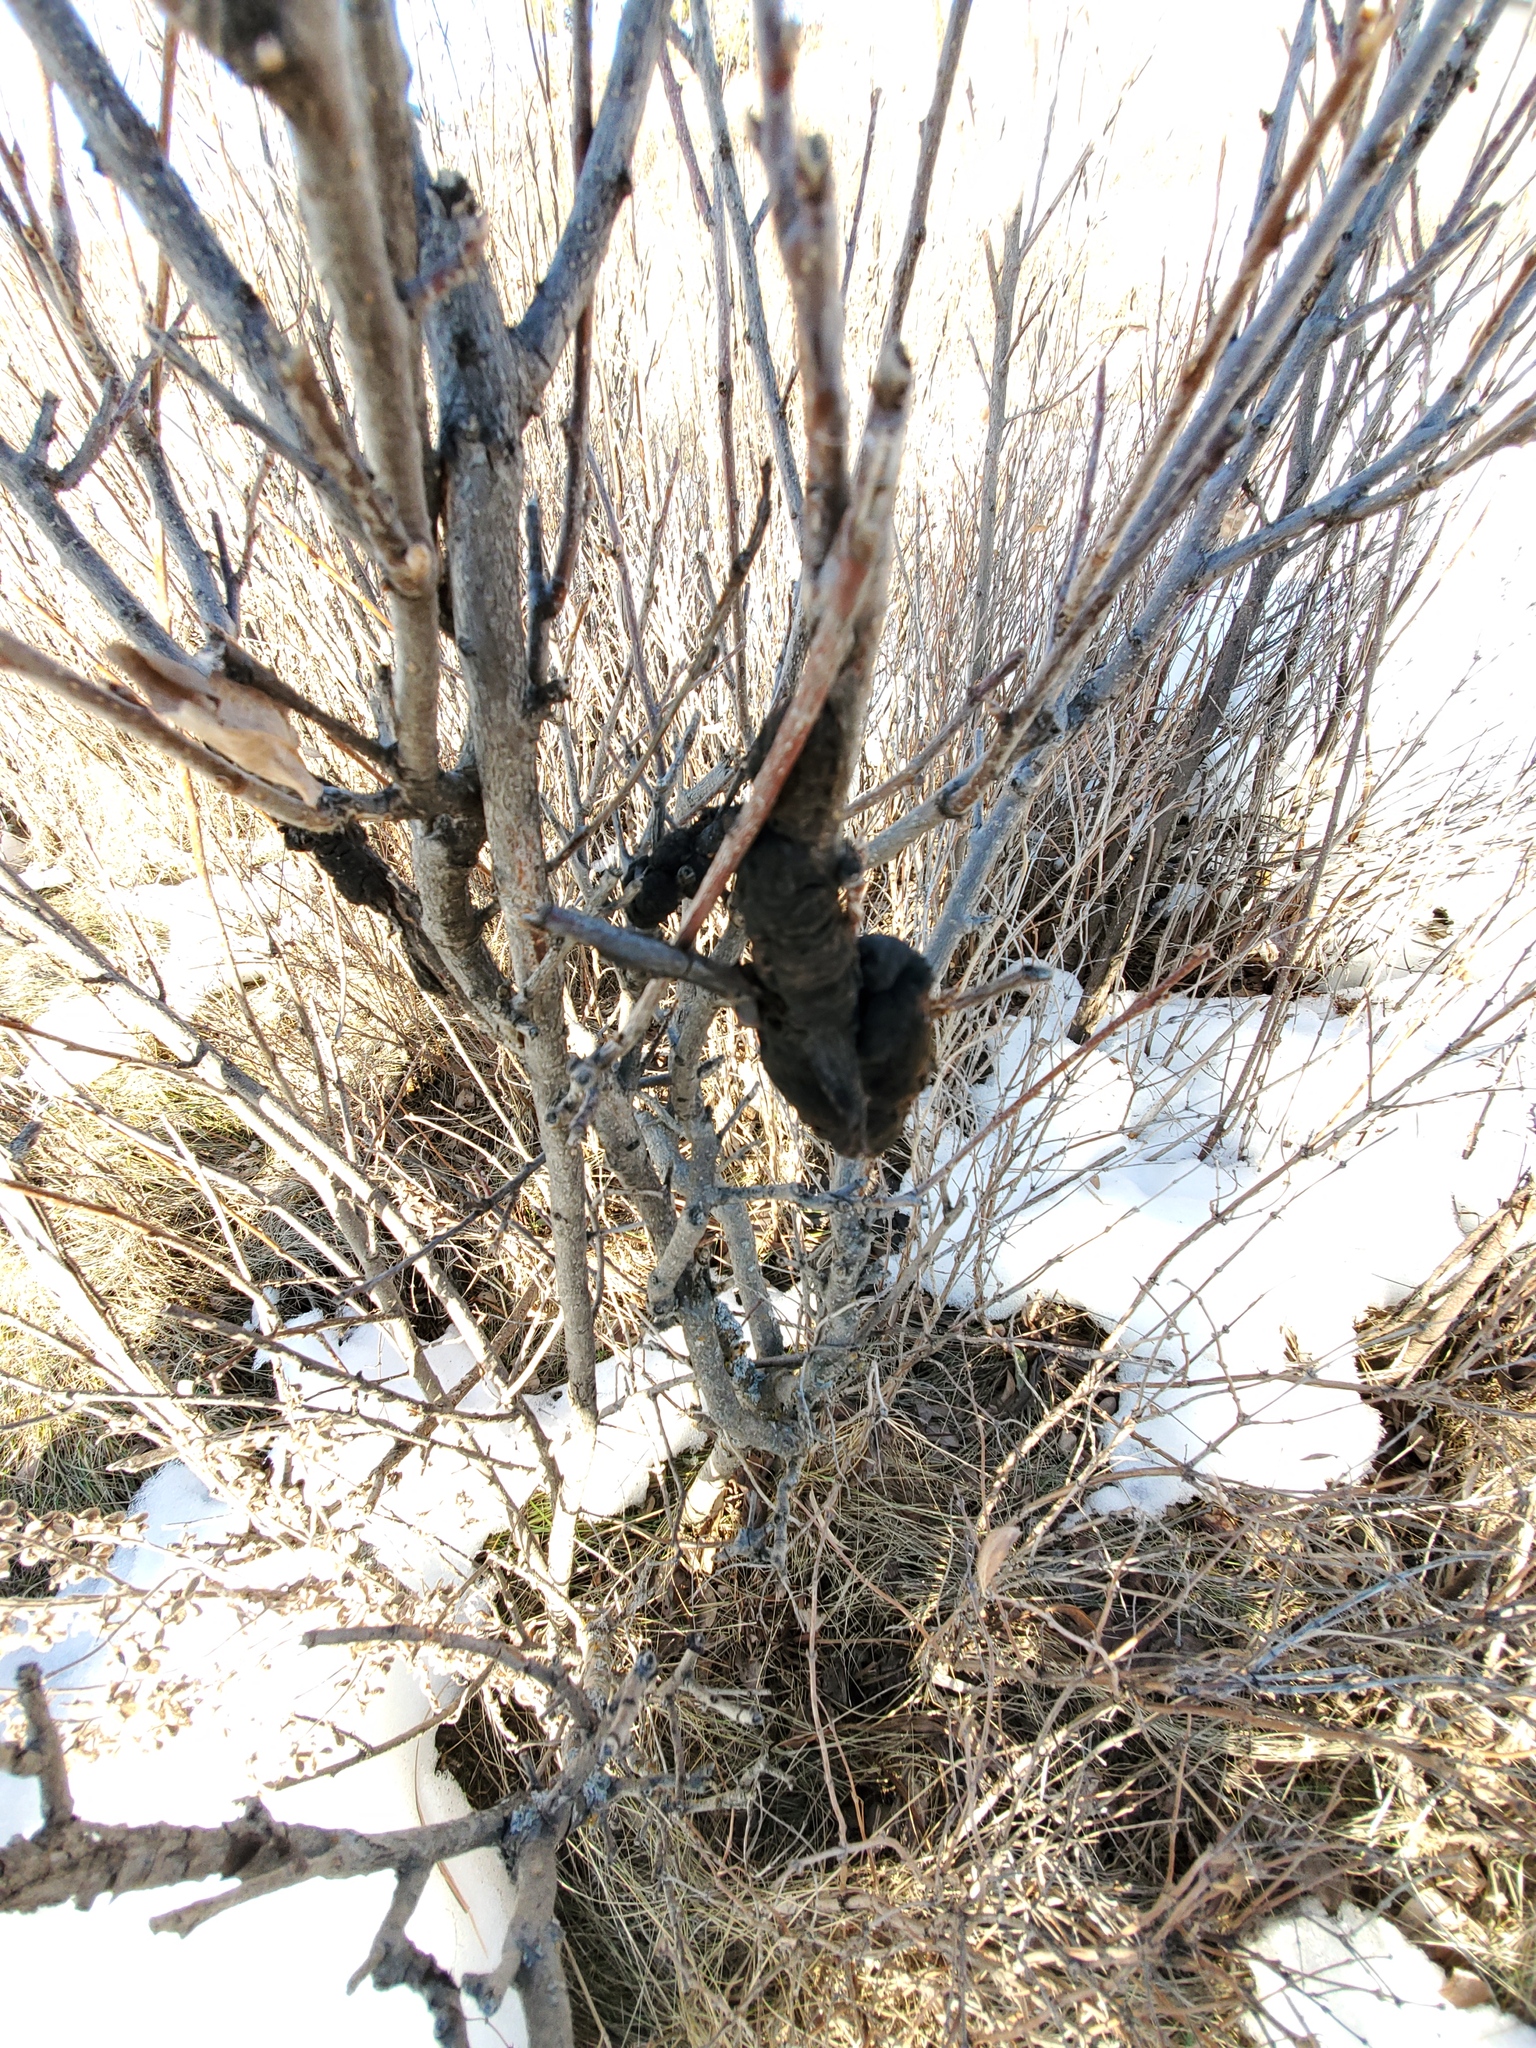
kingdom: Fungi
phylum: Ascomycota
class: Dothideomycetes
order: Venturiales
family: Venturiaceae
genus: Apiosporina
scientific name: Apiosporina morbosa
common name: Black knot
